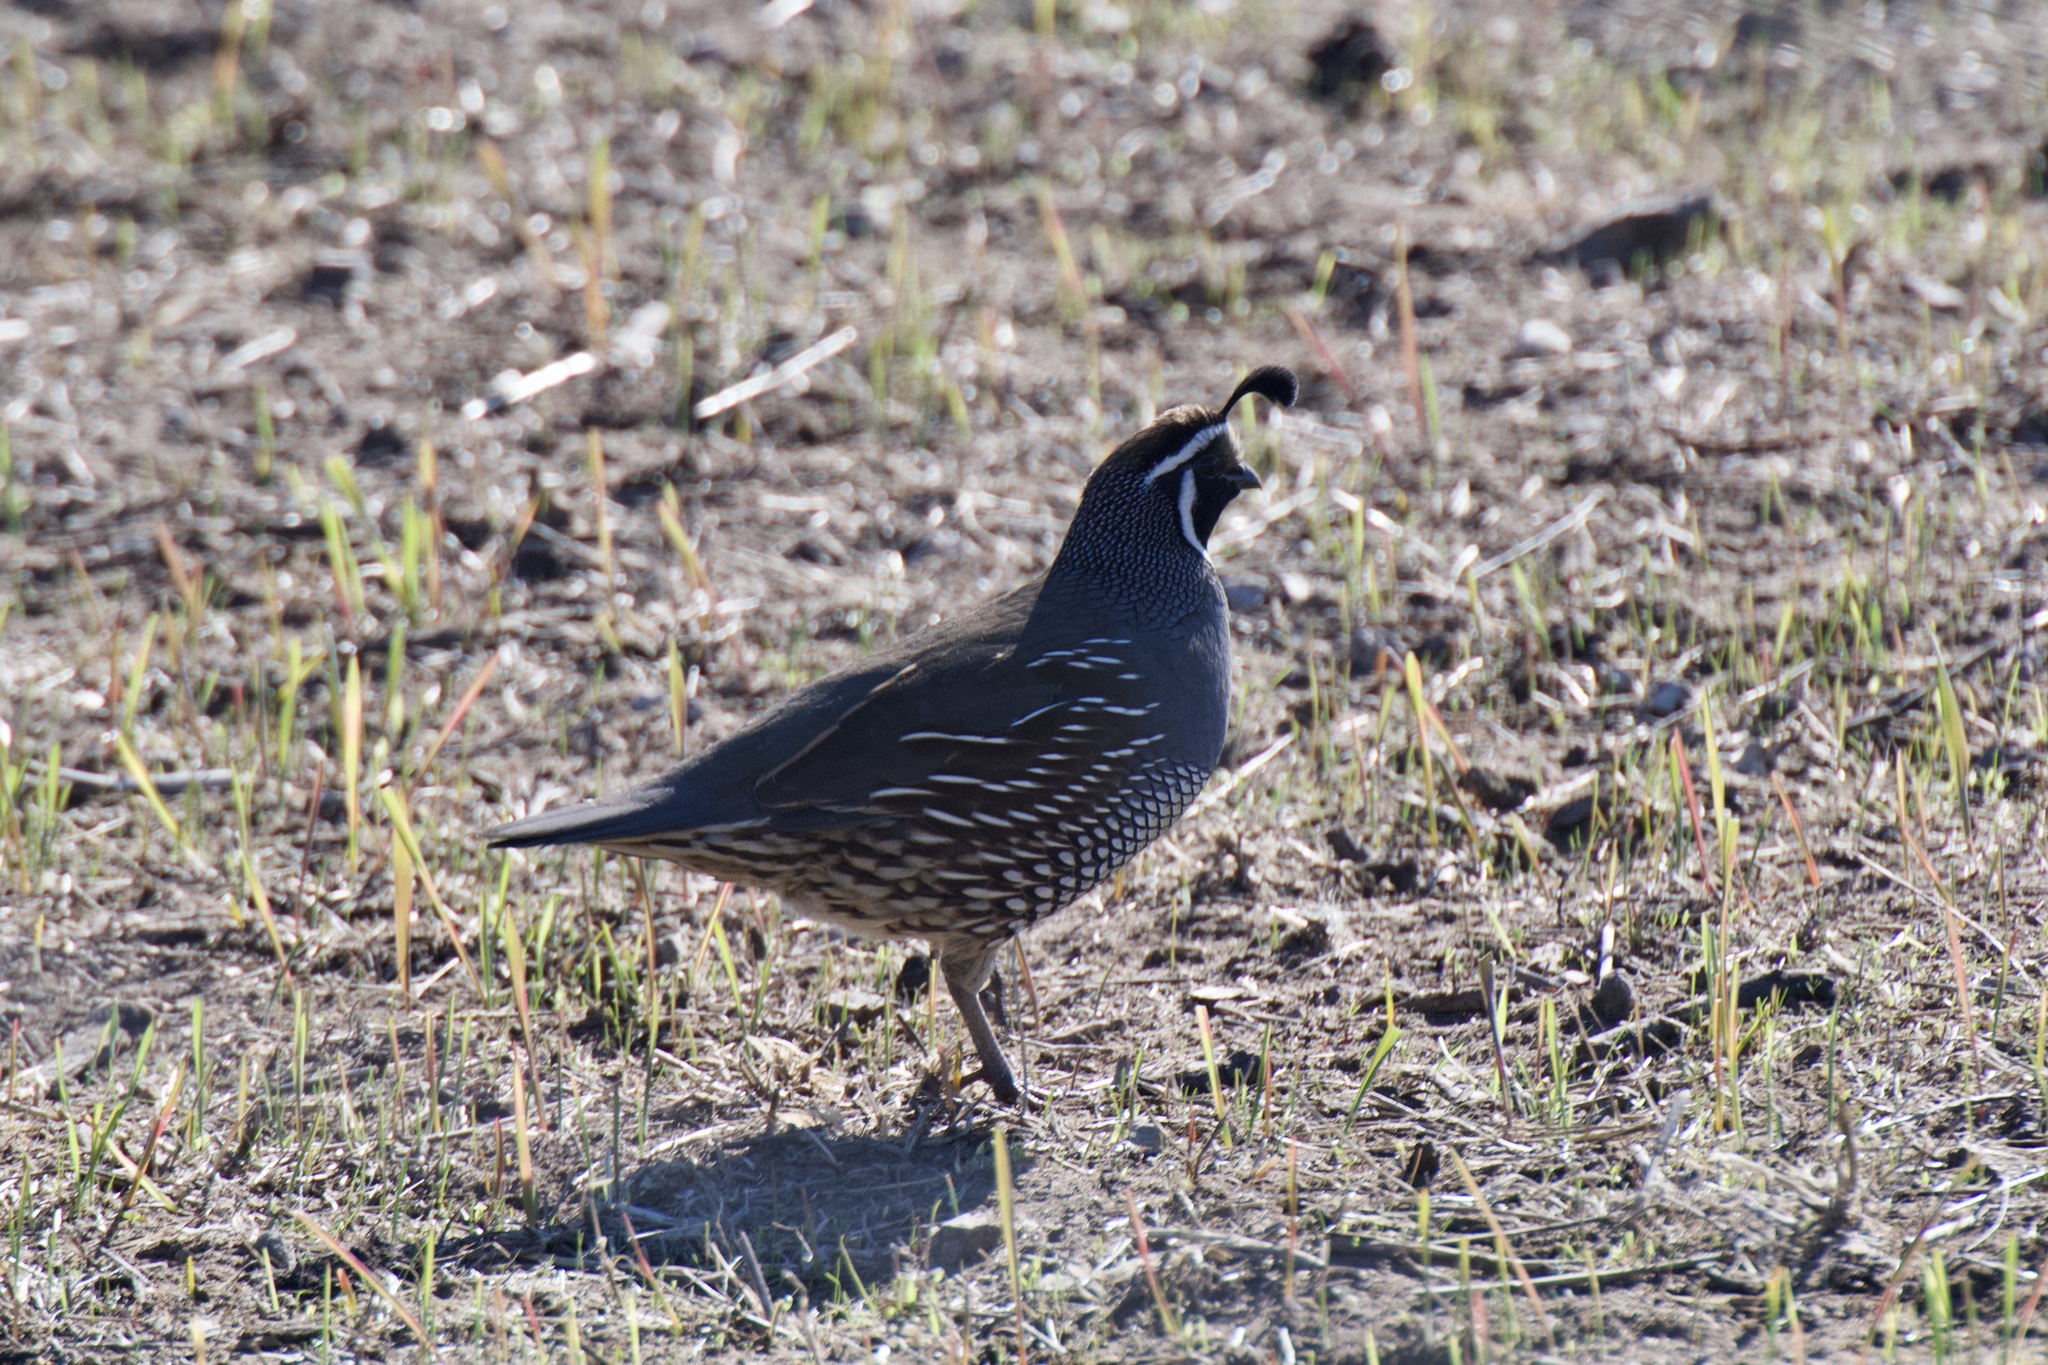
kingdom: Animalia
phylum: Chordata
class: Aves
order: Galliformes
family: Odontophoridae
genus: Callipepla
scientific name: Callipepla californica
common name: California quail
